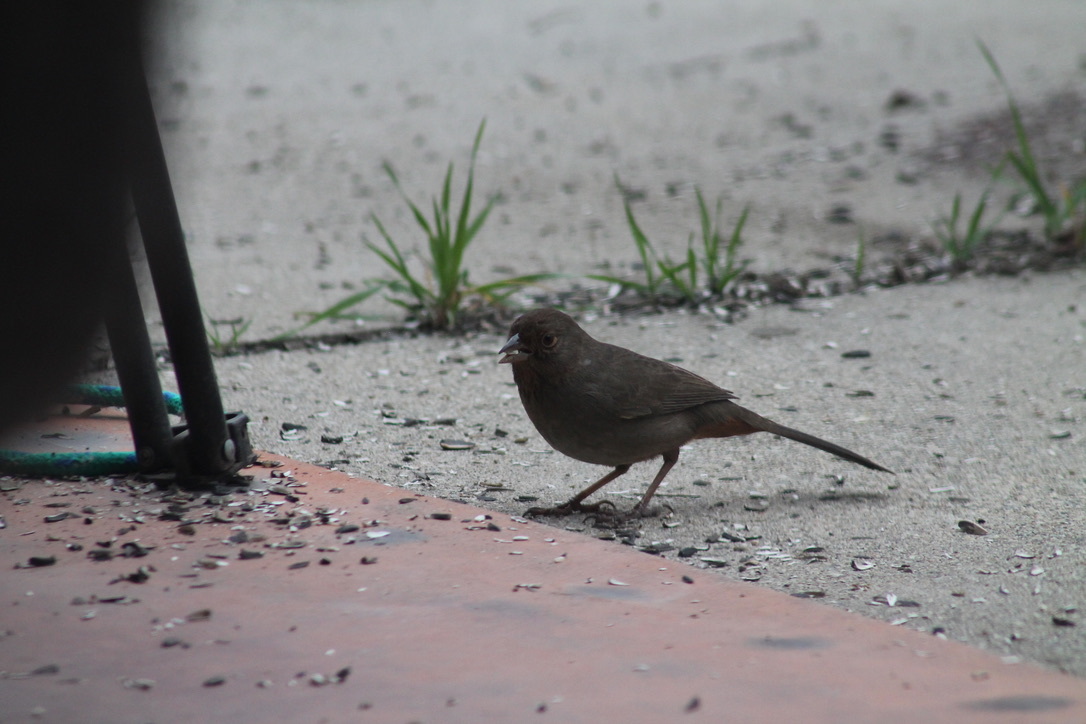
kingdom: Animalia
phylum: Chordata
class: Aves
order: Passeriformes
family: Passerellidae
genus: Melozone
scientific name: Melozone crissalis
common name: California towhee
